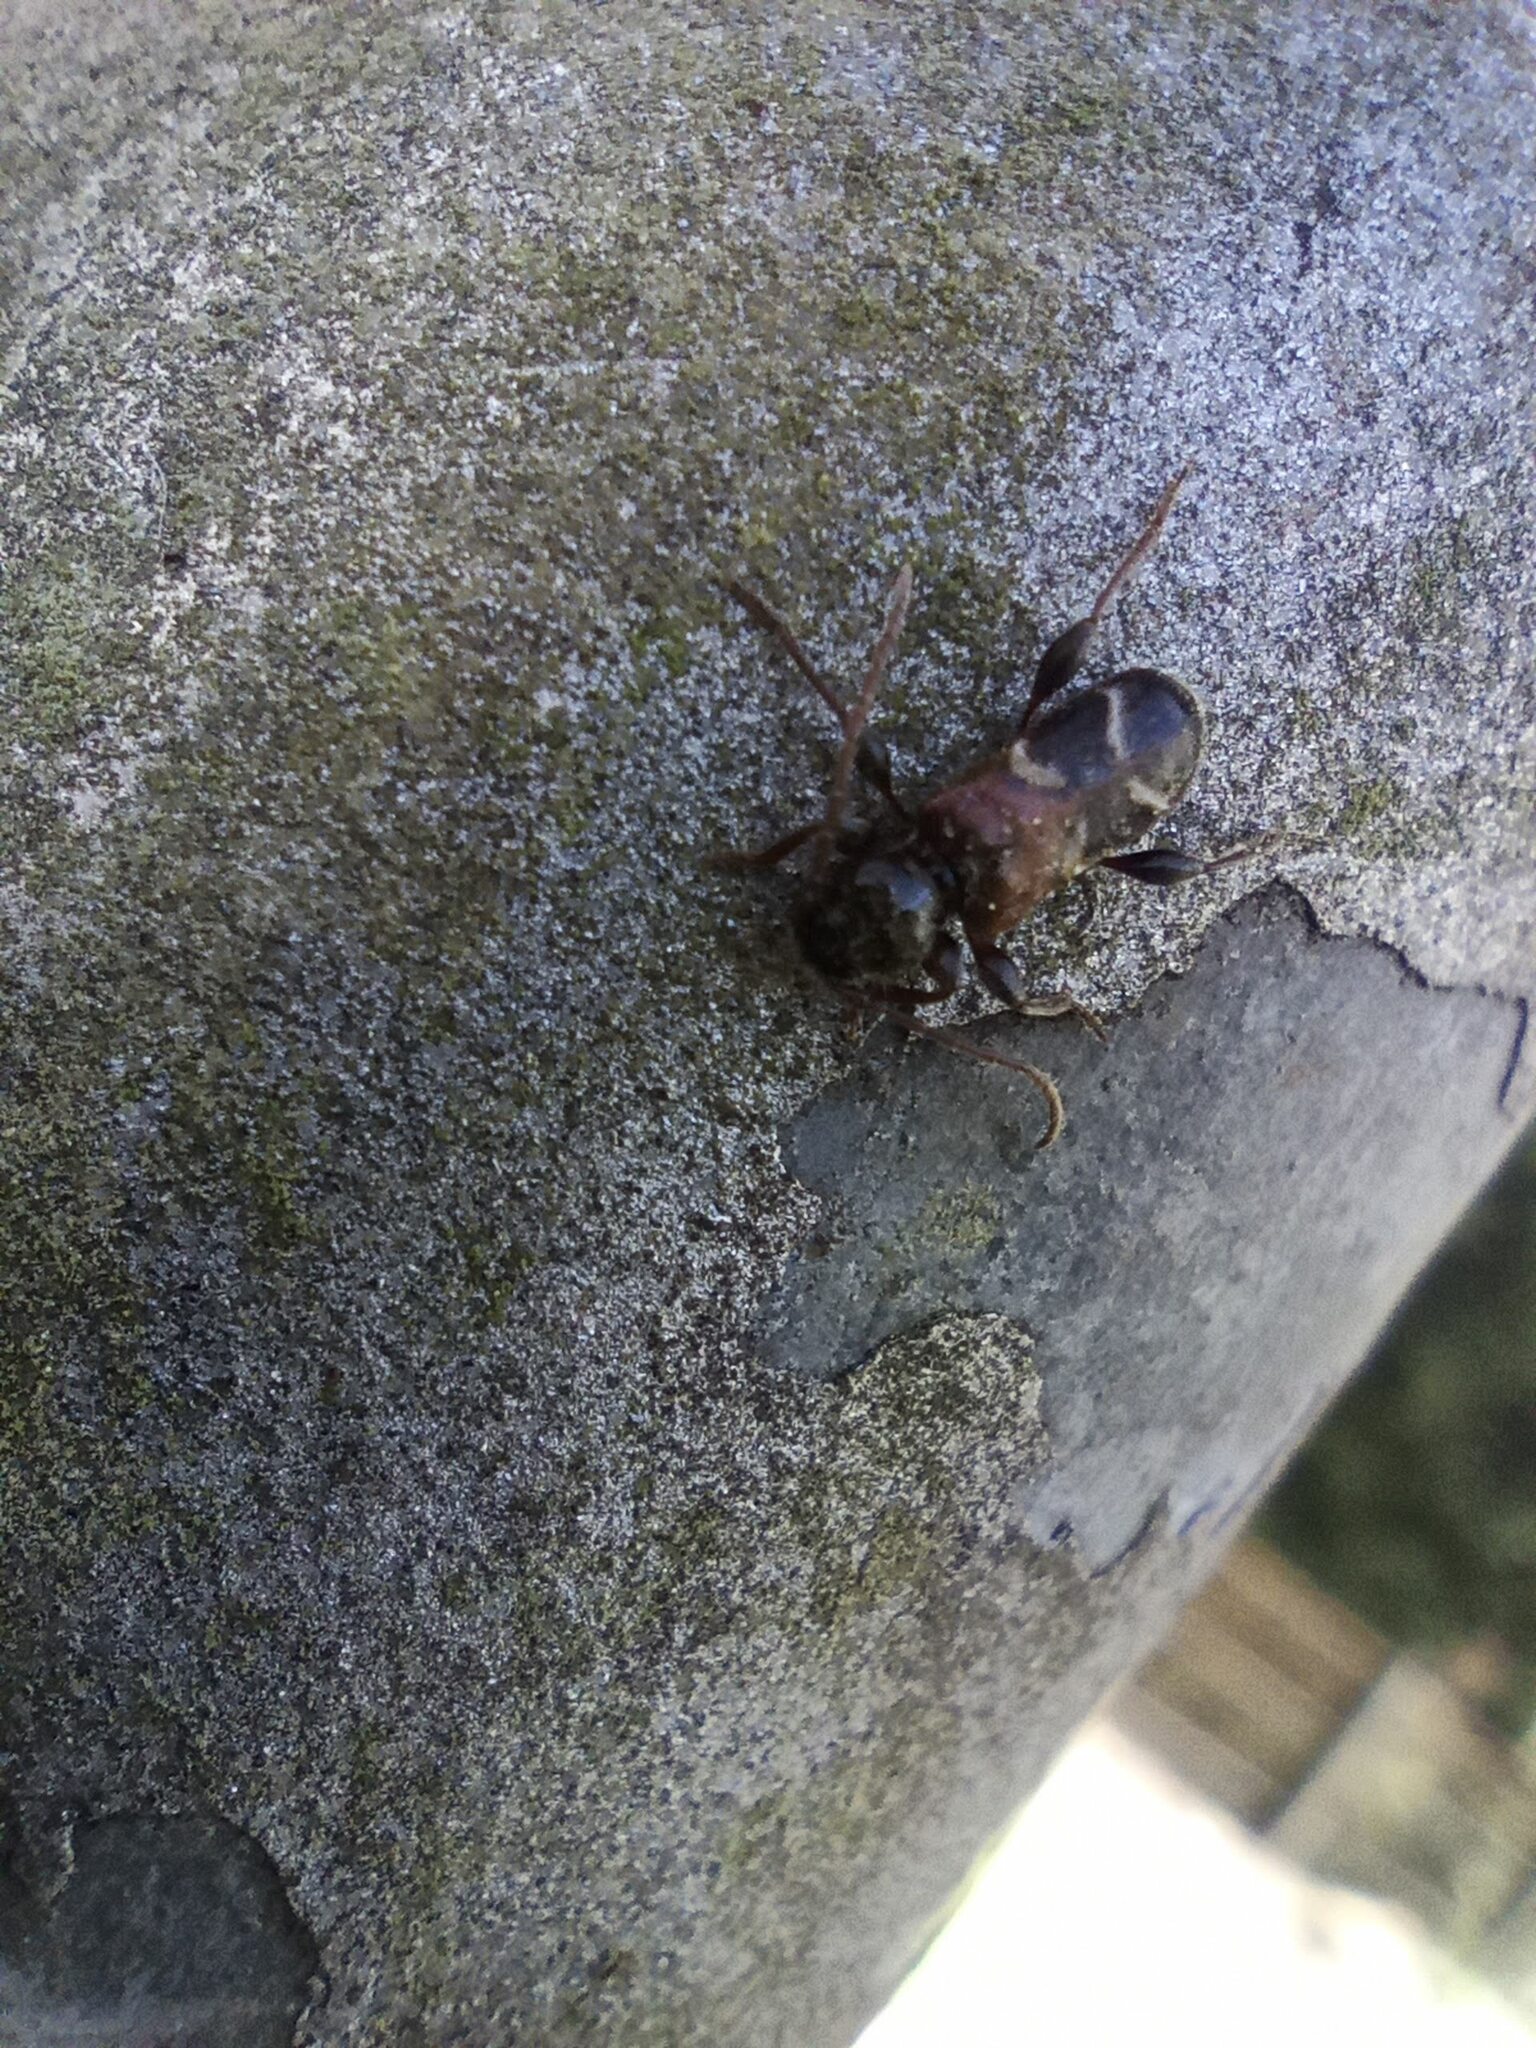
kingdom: Animalia
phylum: Arthropoda
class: Insecta
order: Coleoptera
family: Cerambycidae
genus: Poecilium
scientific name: Poecilium alni
